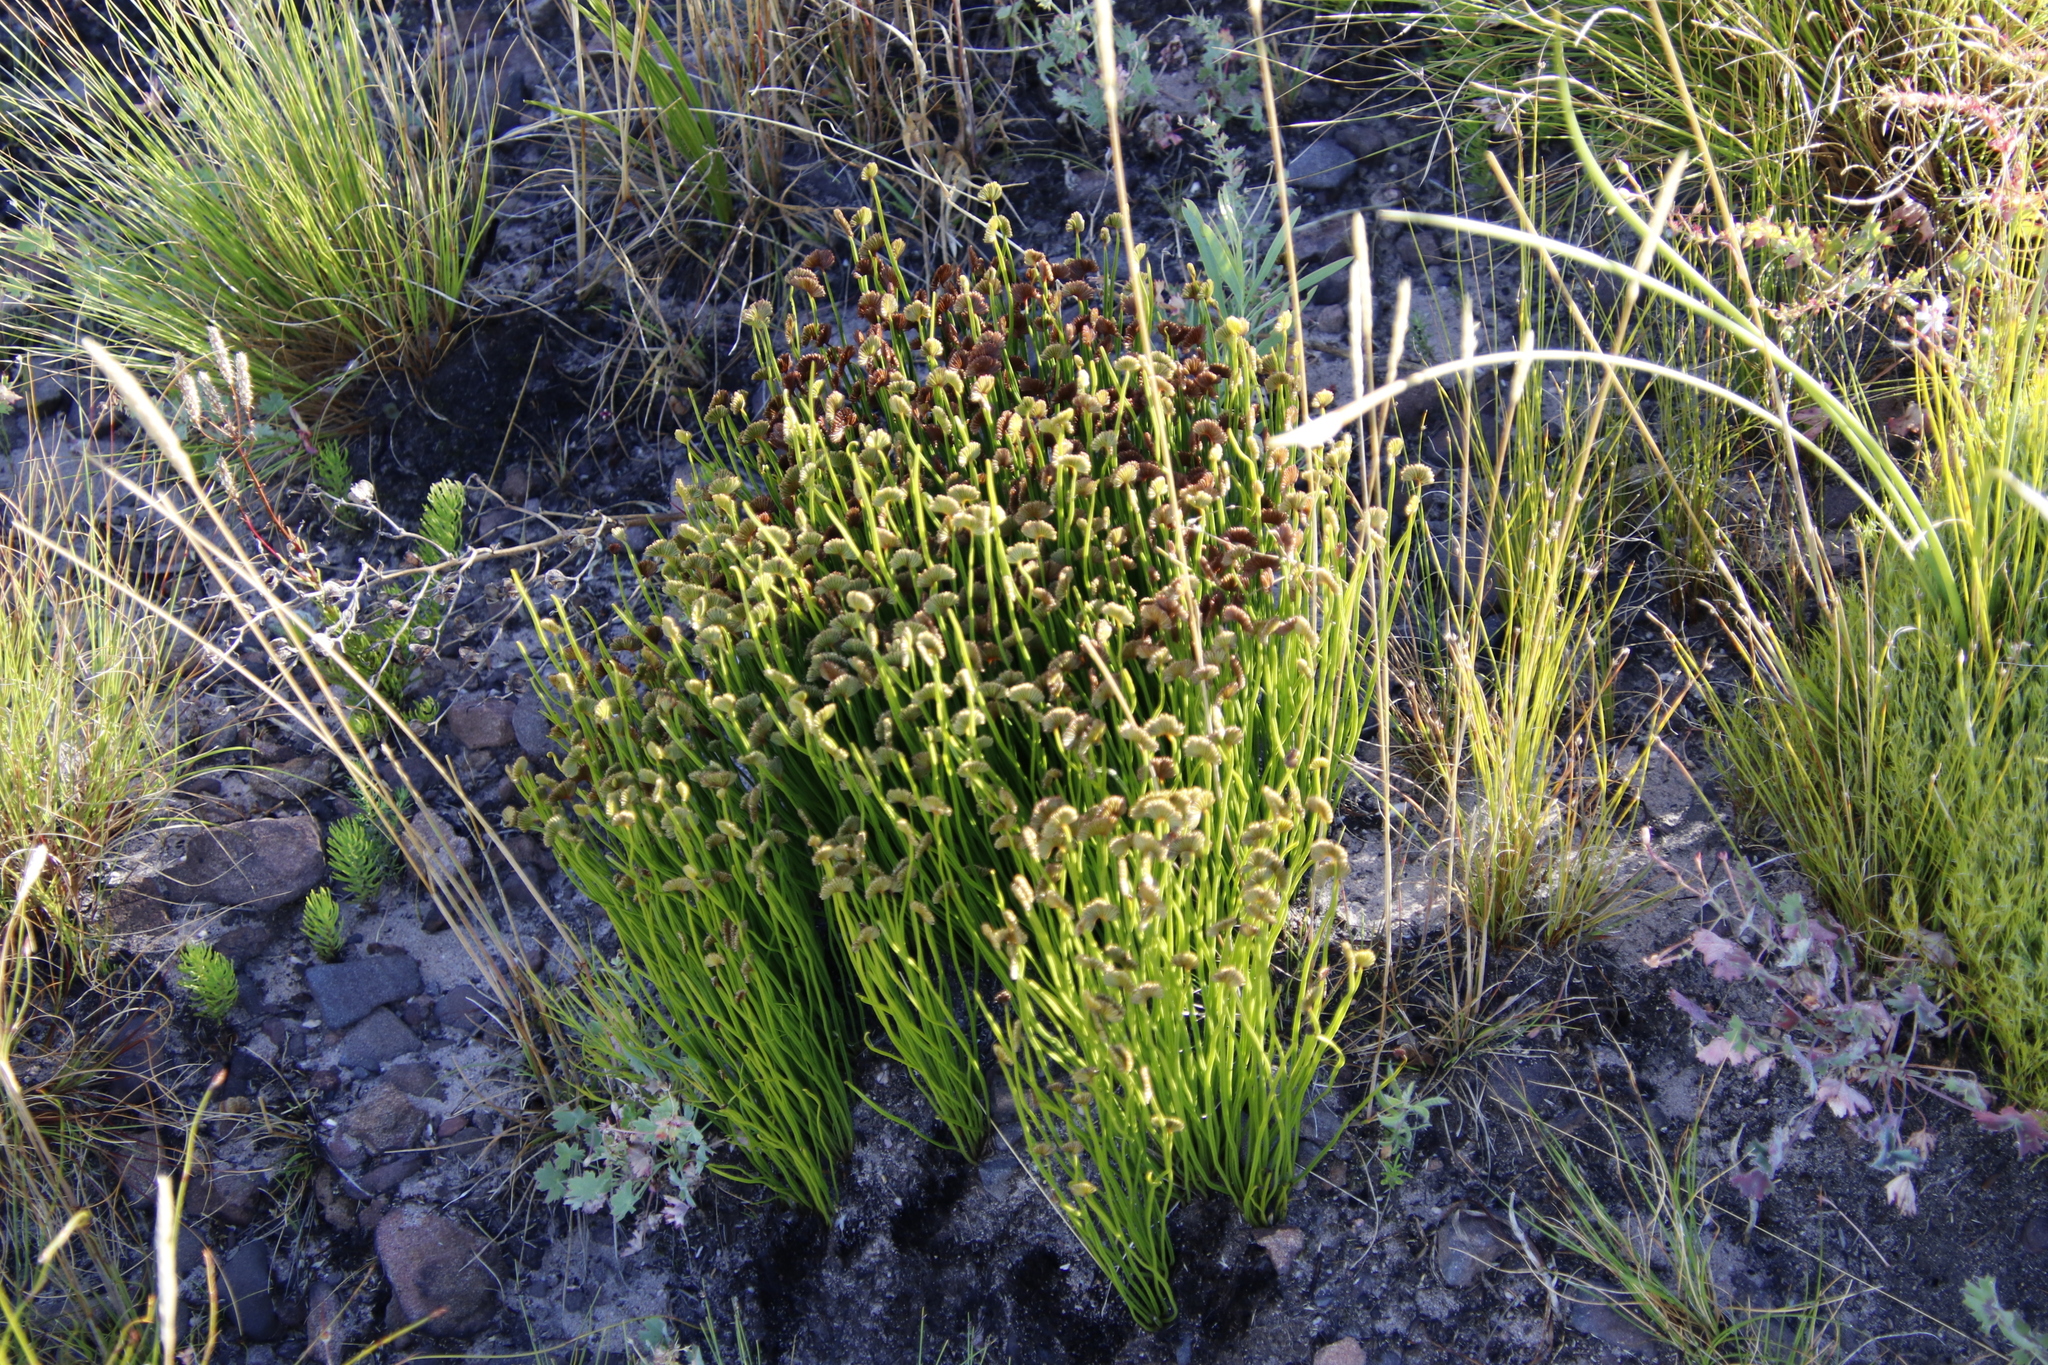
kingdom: Plantae
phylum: Tracheophyta
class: Polypodiopsida
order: Schizaeales
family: Schizaeaceae
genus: Schizaea
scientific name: Schizaea pectinata
